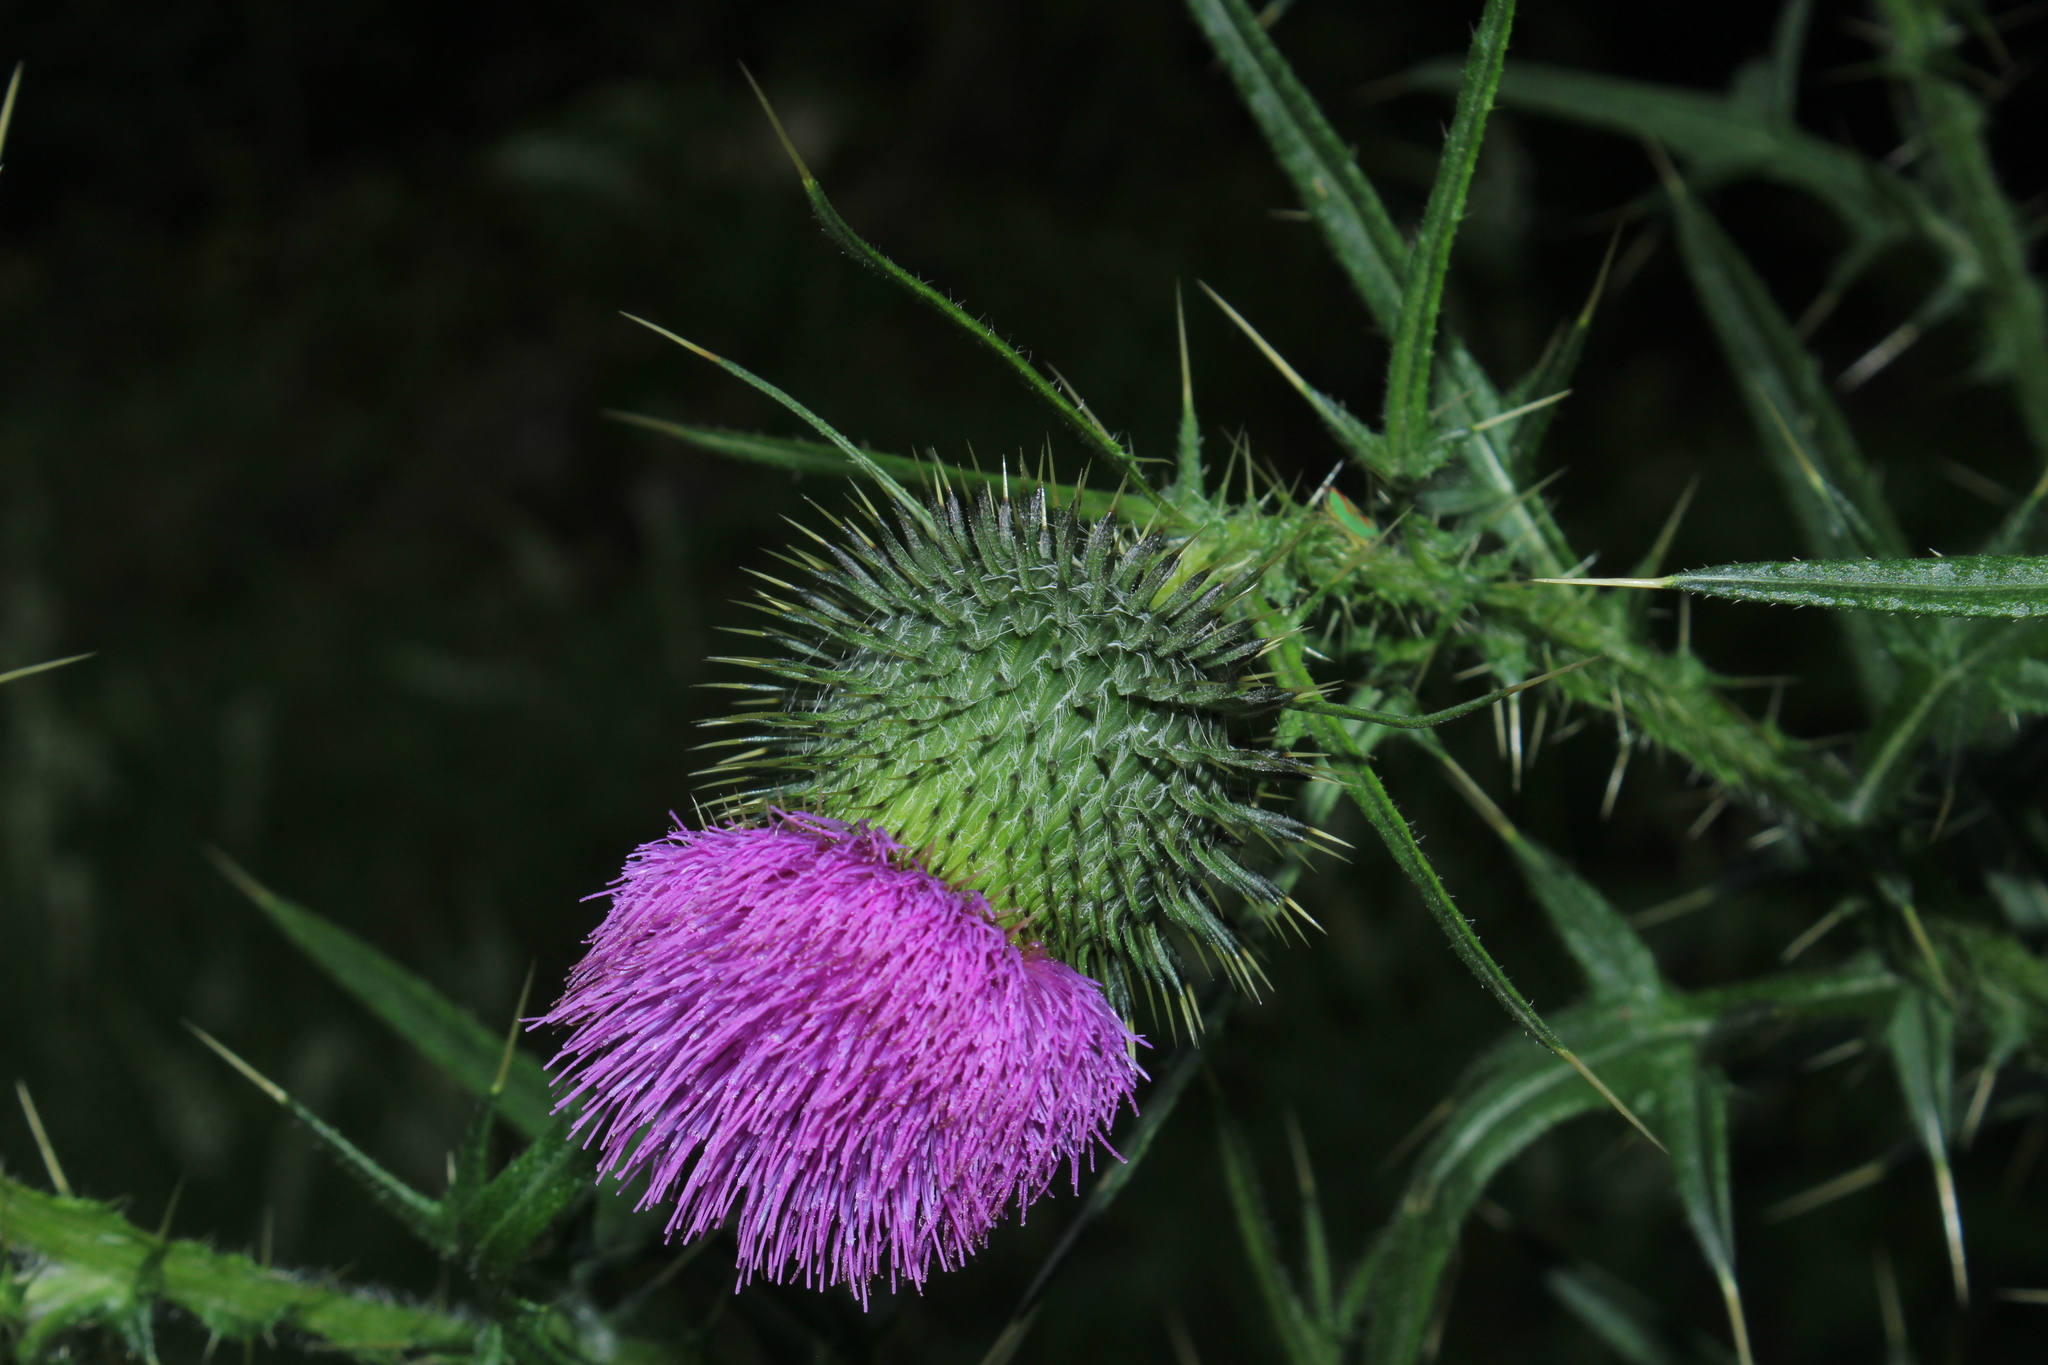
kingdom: Plantae
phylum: Tracheophyta
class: Magnoliopsida
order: Asterales
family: Asteraceae
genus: Cirsium
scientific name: Cirsium vulgare
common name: Bull thistle
